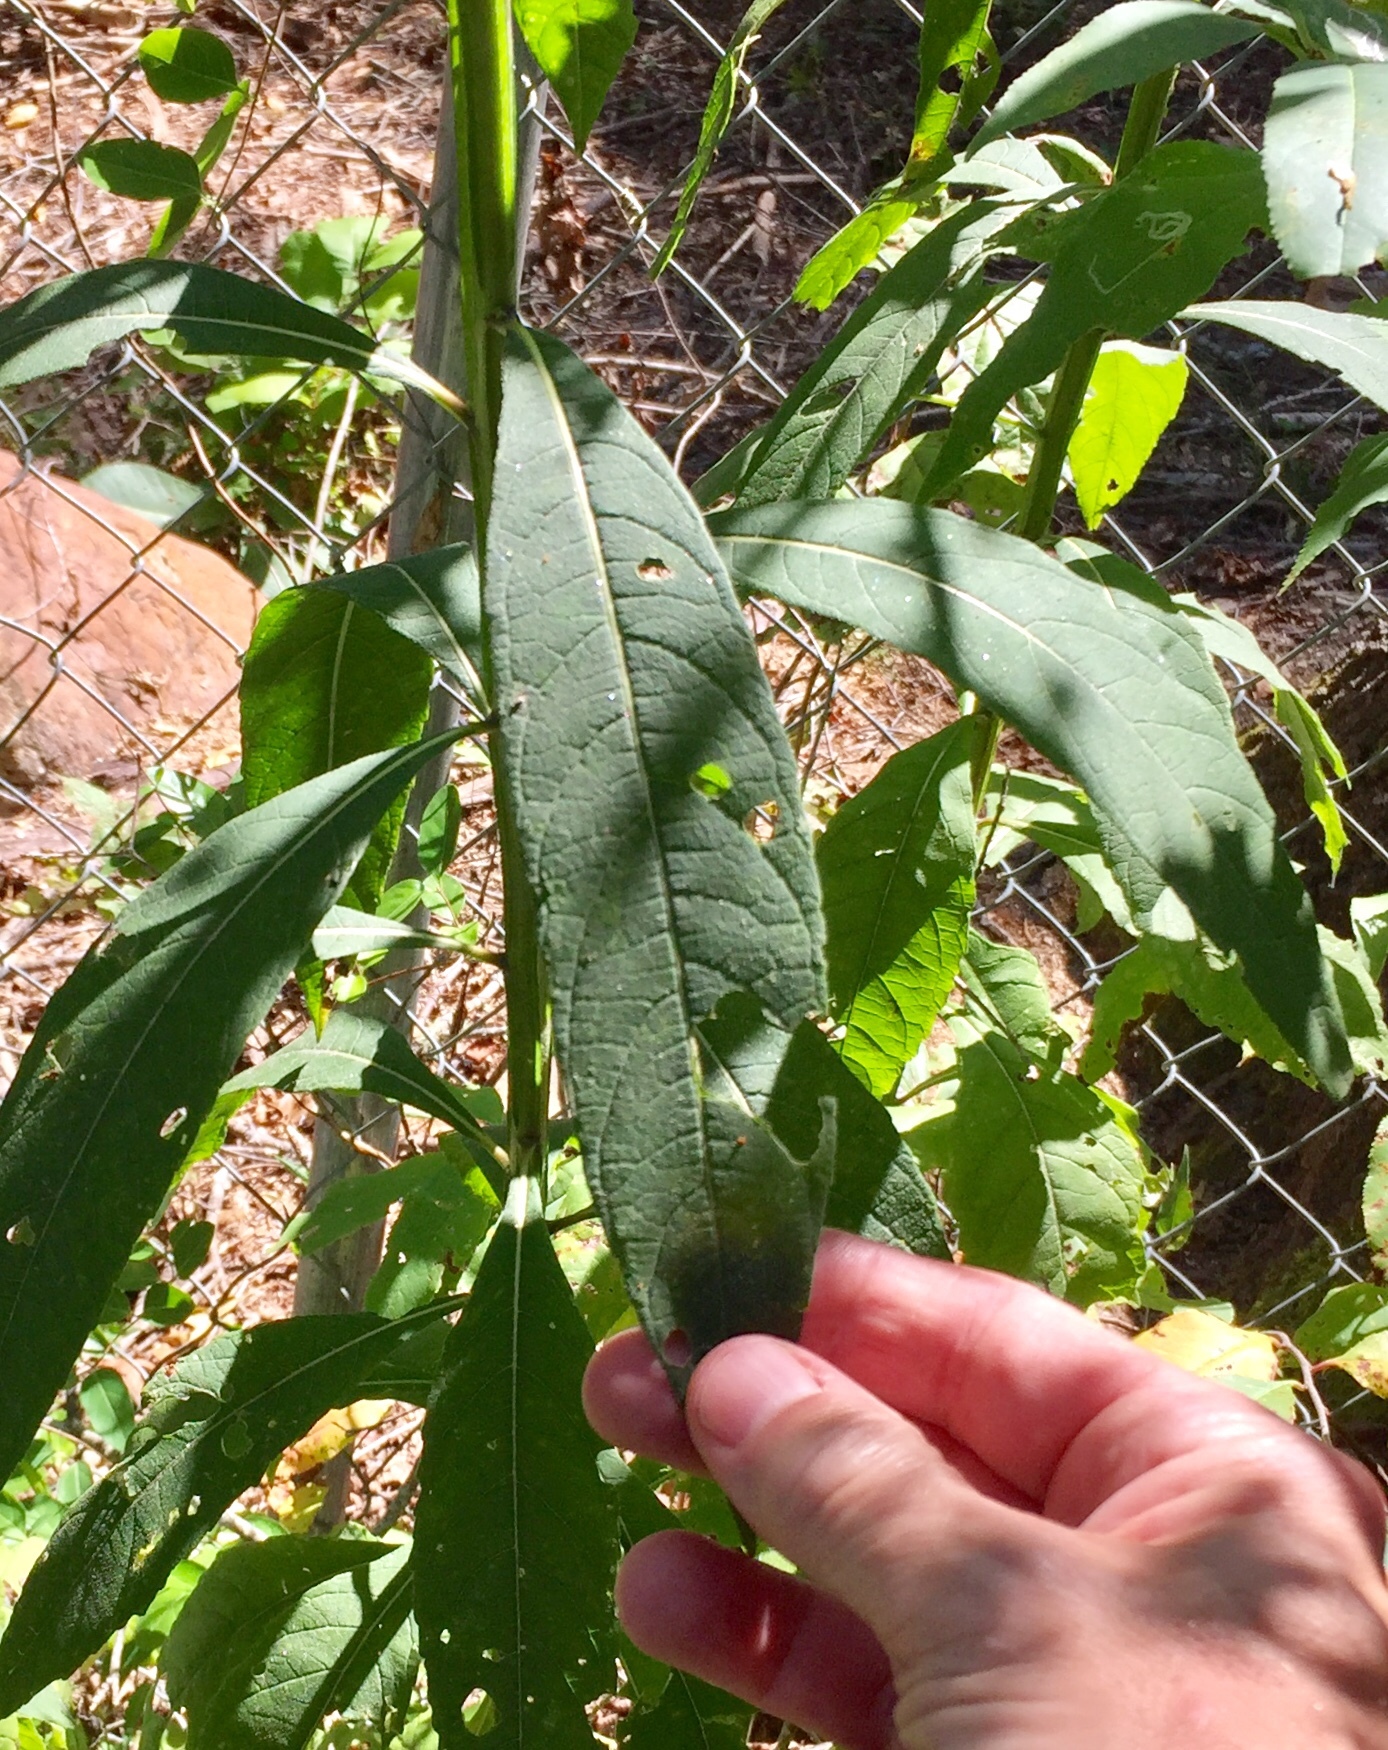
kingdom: Plantae
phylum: Tracheophyta
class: Magnoliopsida
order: Asterales
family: Asteraceae
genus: Verbesina
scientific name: Verbesina alternifolia
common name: Wingstem
